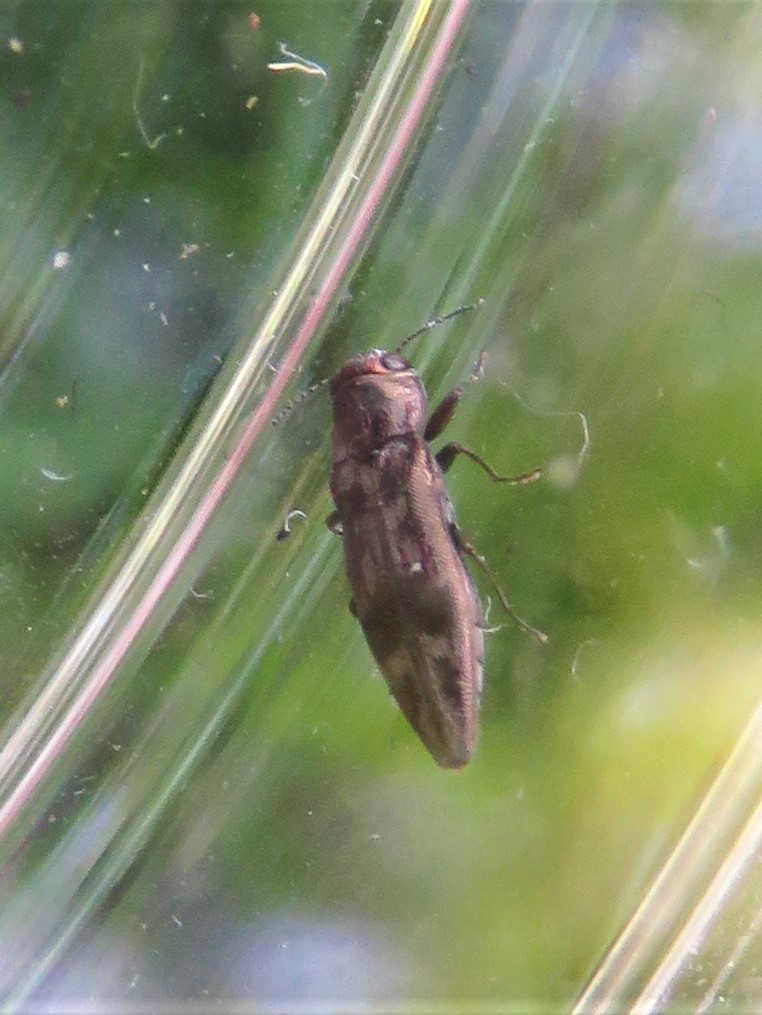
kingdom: Animalia
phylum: Arthropoda
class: Insecta
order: Coleoptera
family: Buprestidae
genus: Agrilus
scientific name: Agrilus lecontei
